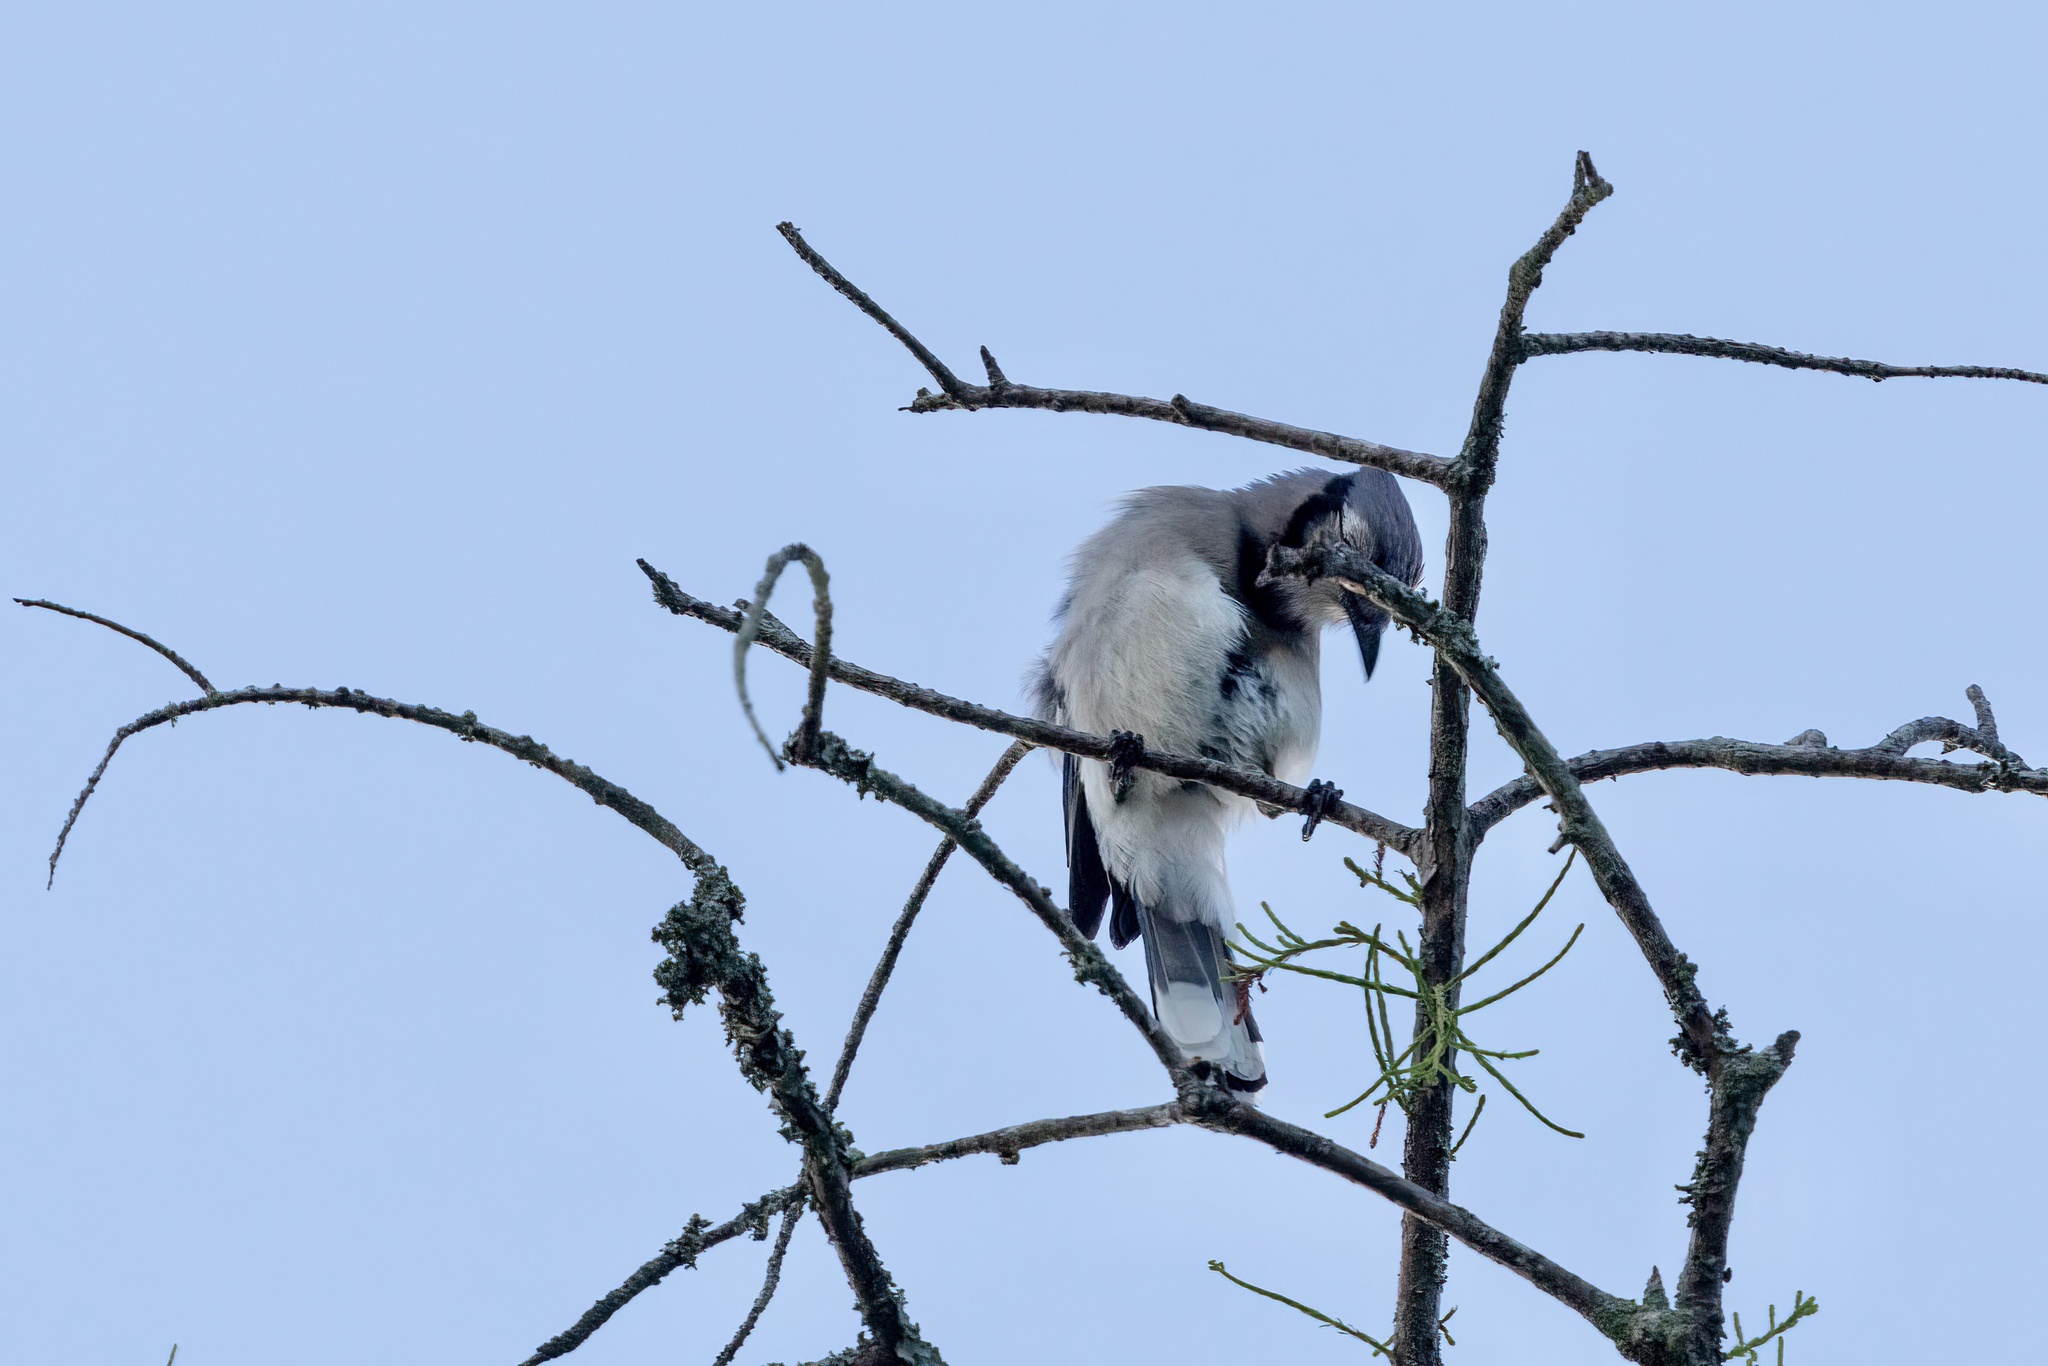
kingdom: Animalia
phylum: Chordata
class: Aves
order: Passeriformes
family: Corvidae
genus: Cyanocitta
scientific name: Cyanocitta cristata
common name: Blue jay
